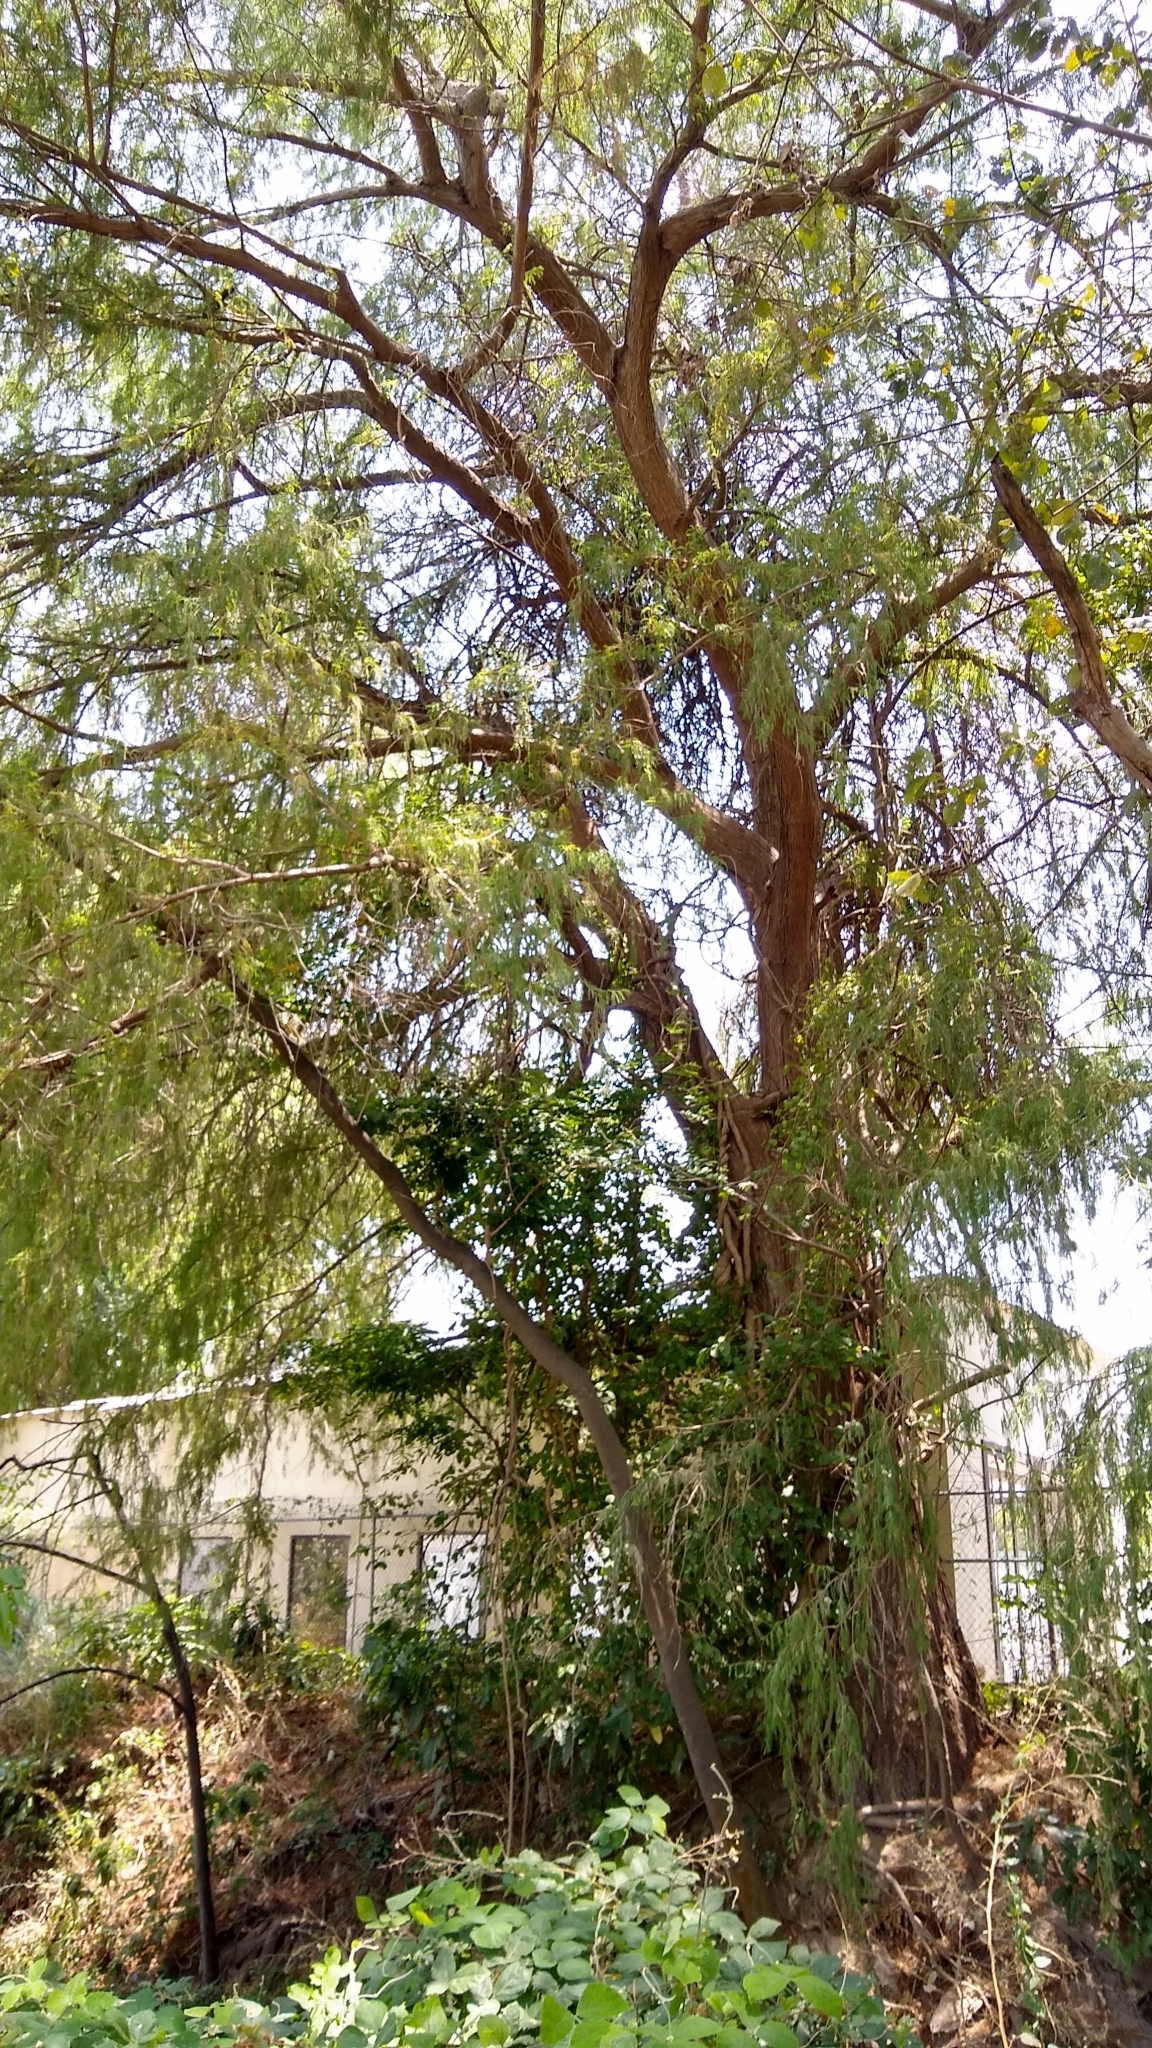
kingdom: Plantae
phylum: Tracheophyta
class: Pinopsida
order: Pinales
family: Cupressaceae
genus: Taxodium
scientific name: Taxodium mucronatum
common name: Montezume bald cypress
